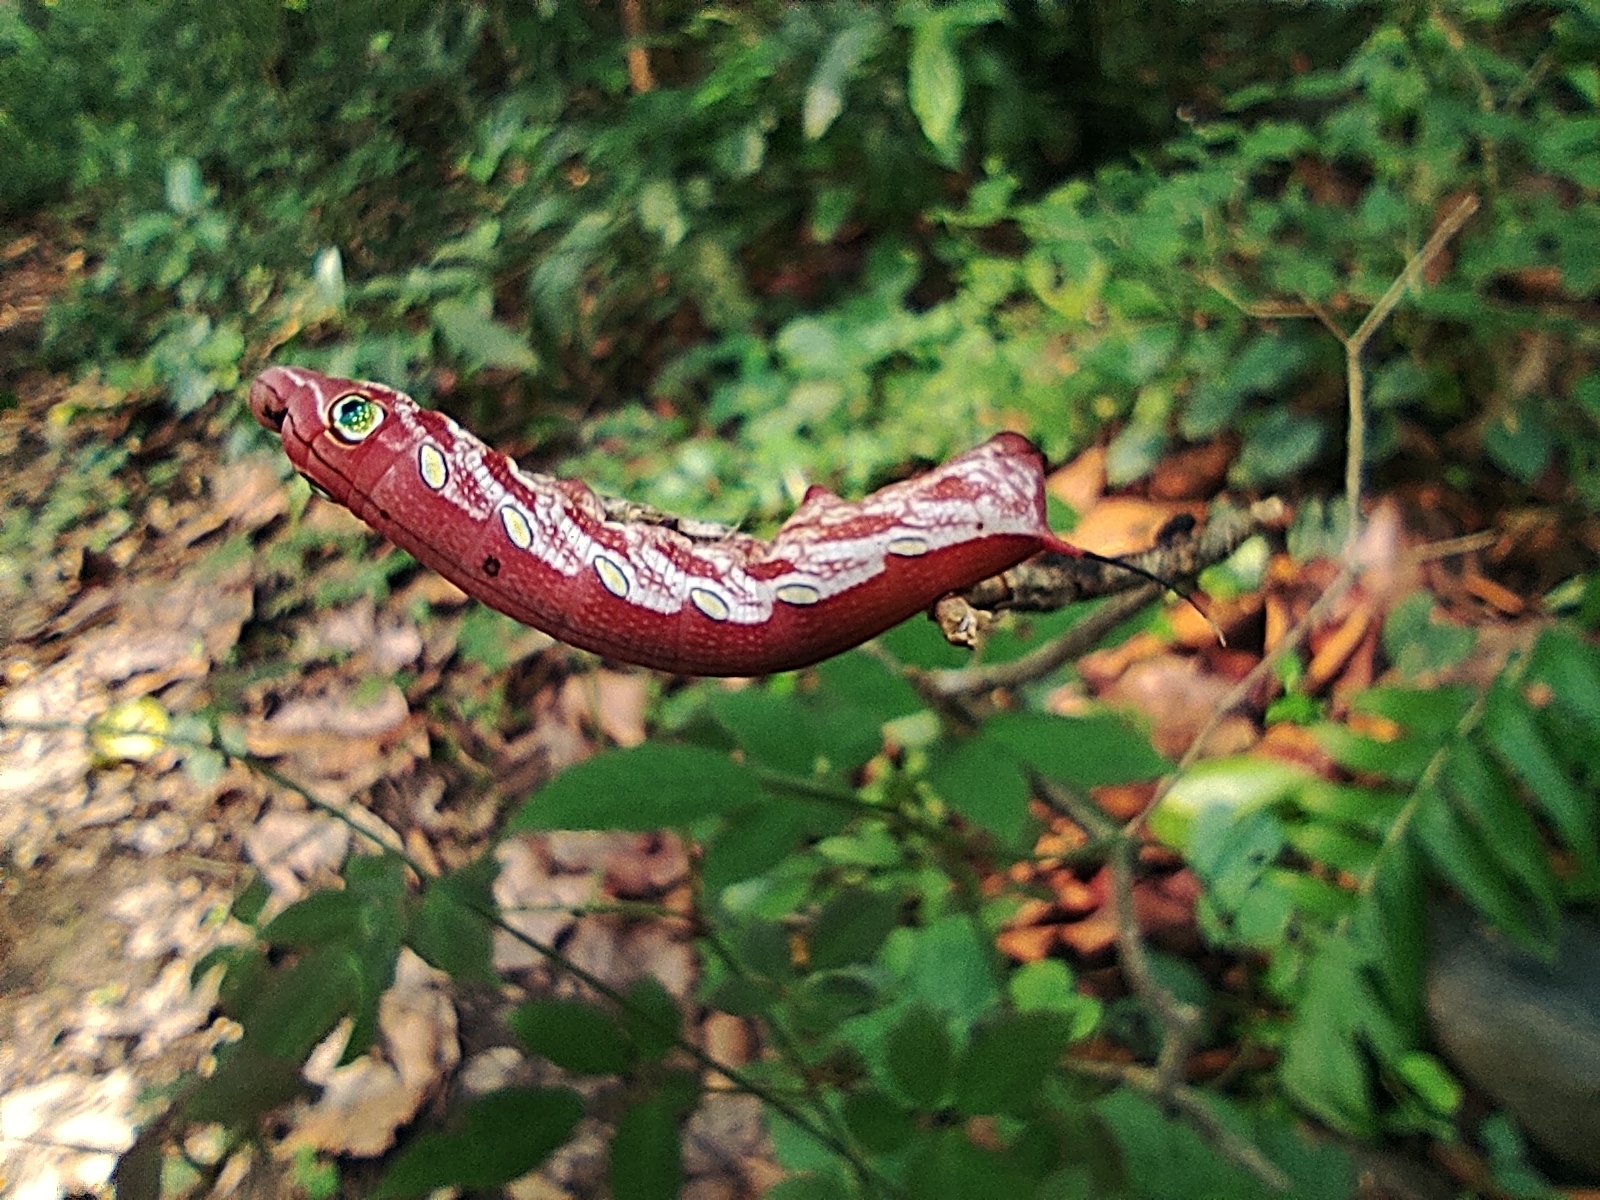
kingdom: Animalia
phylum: Arthropoda
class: Insecta
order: Lepidoptera
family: Sphingidae
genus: Pergesa
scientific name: Pergesa acteus
